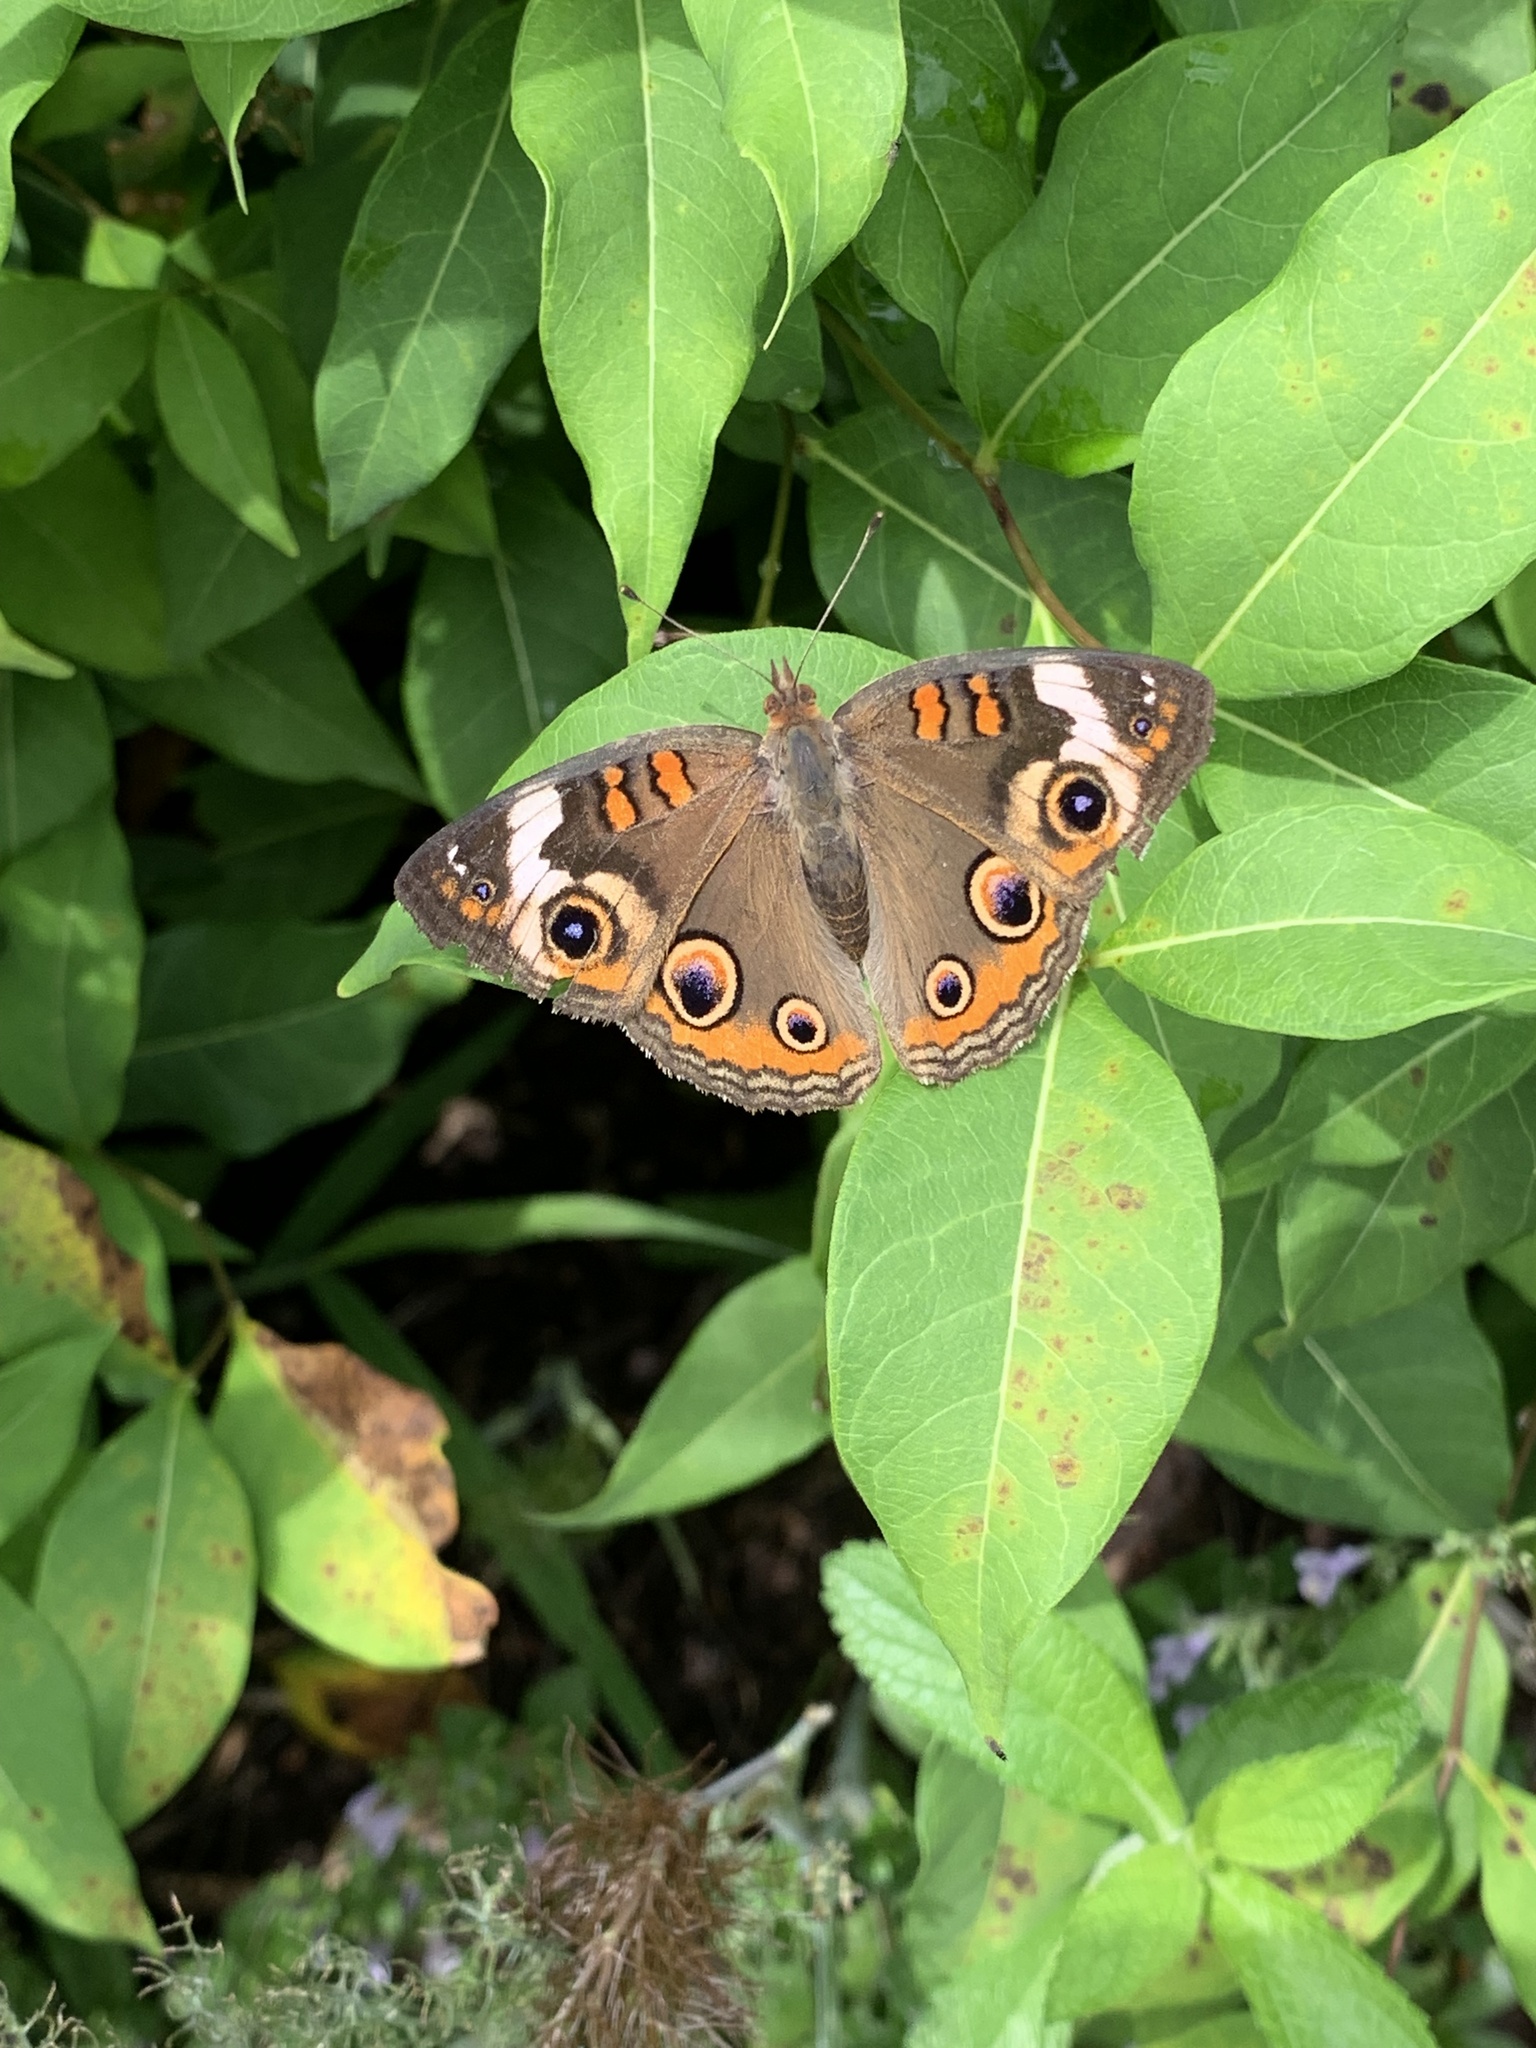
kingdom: Animalia
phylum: Arthropoda
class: Insecta
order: Lepidoptera
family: Nymphalidae
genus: Junonia
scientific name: Junonia coenia
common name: Common buckeye
